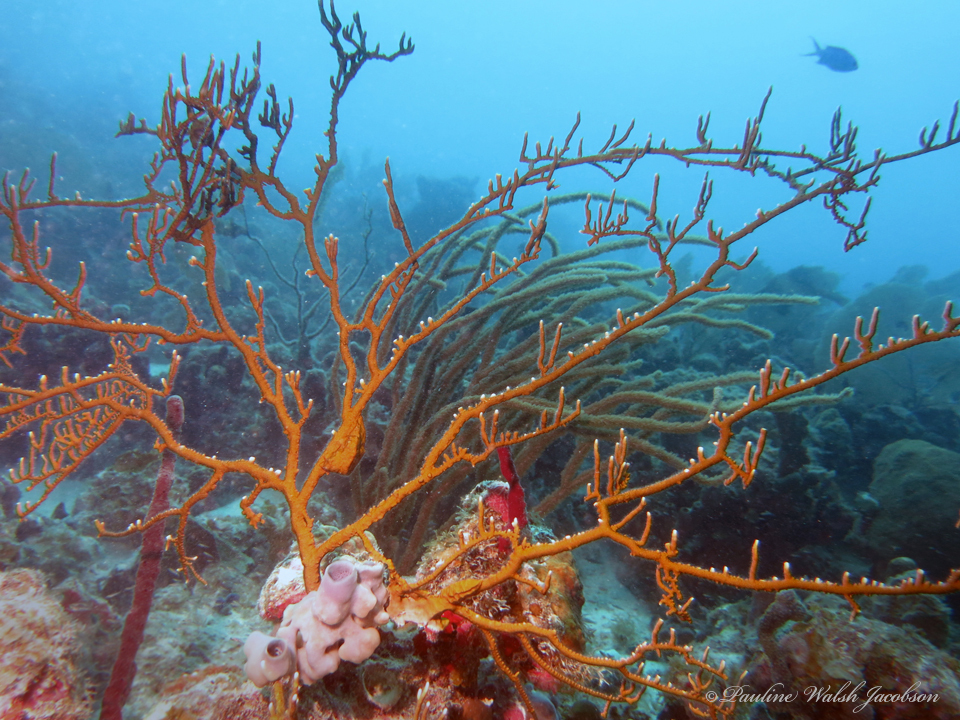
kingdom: Animalia
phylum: Cnidaria
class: Hydrozoa
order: Anthoathecata
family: Milleporidae
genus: Millepora
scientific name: Millepora alcicornis
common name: Branching fire coral
